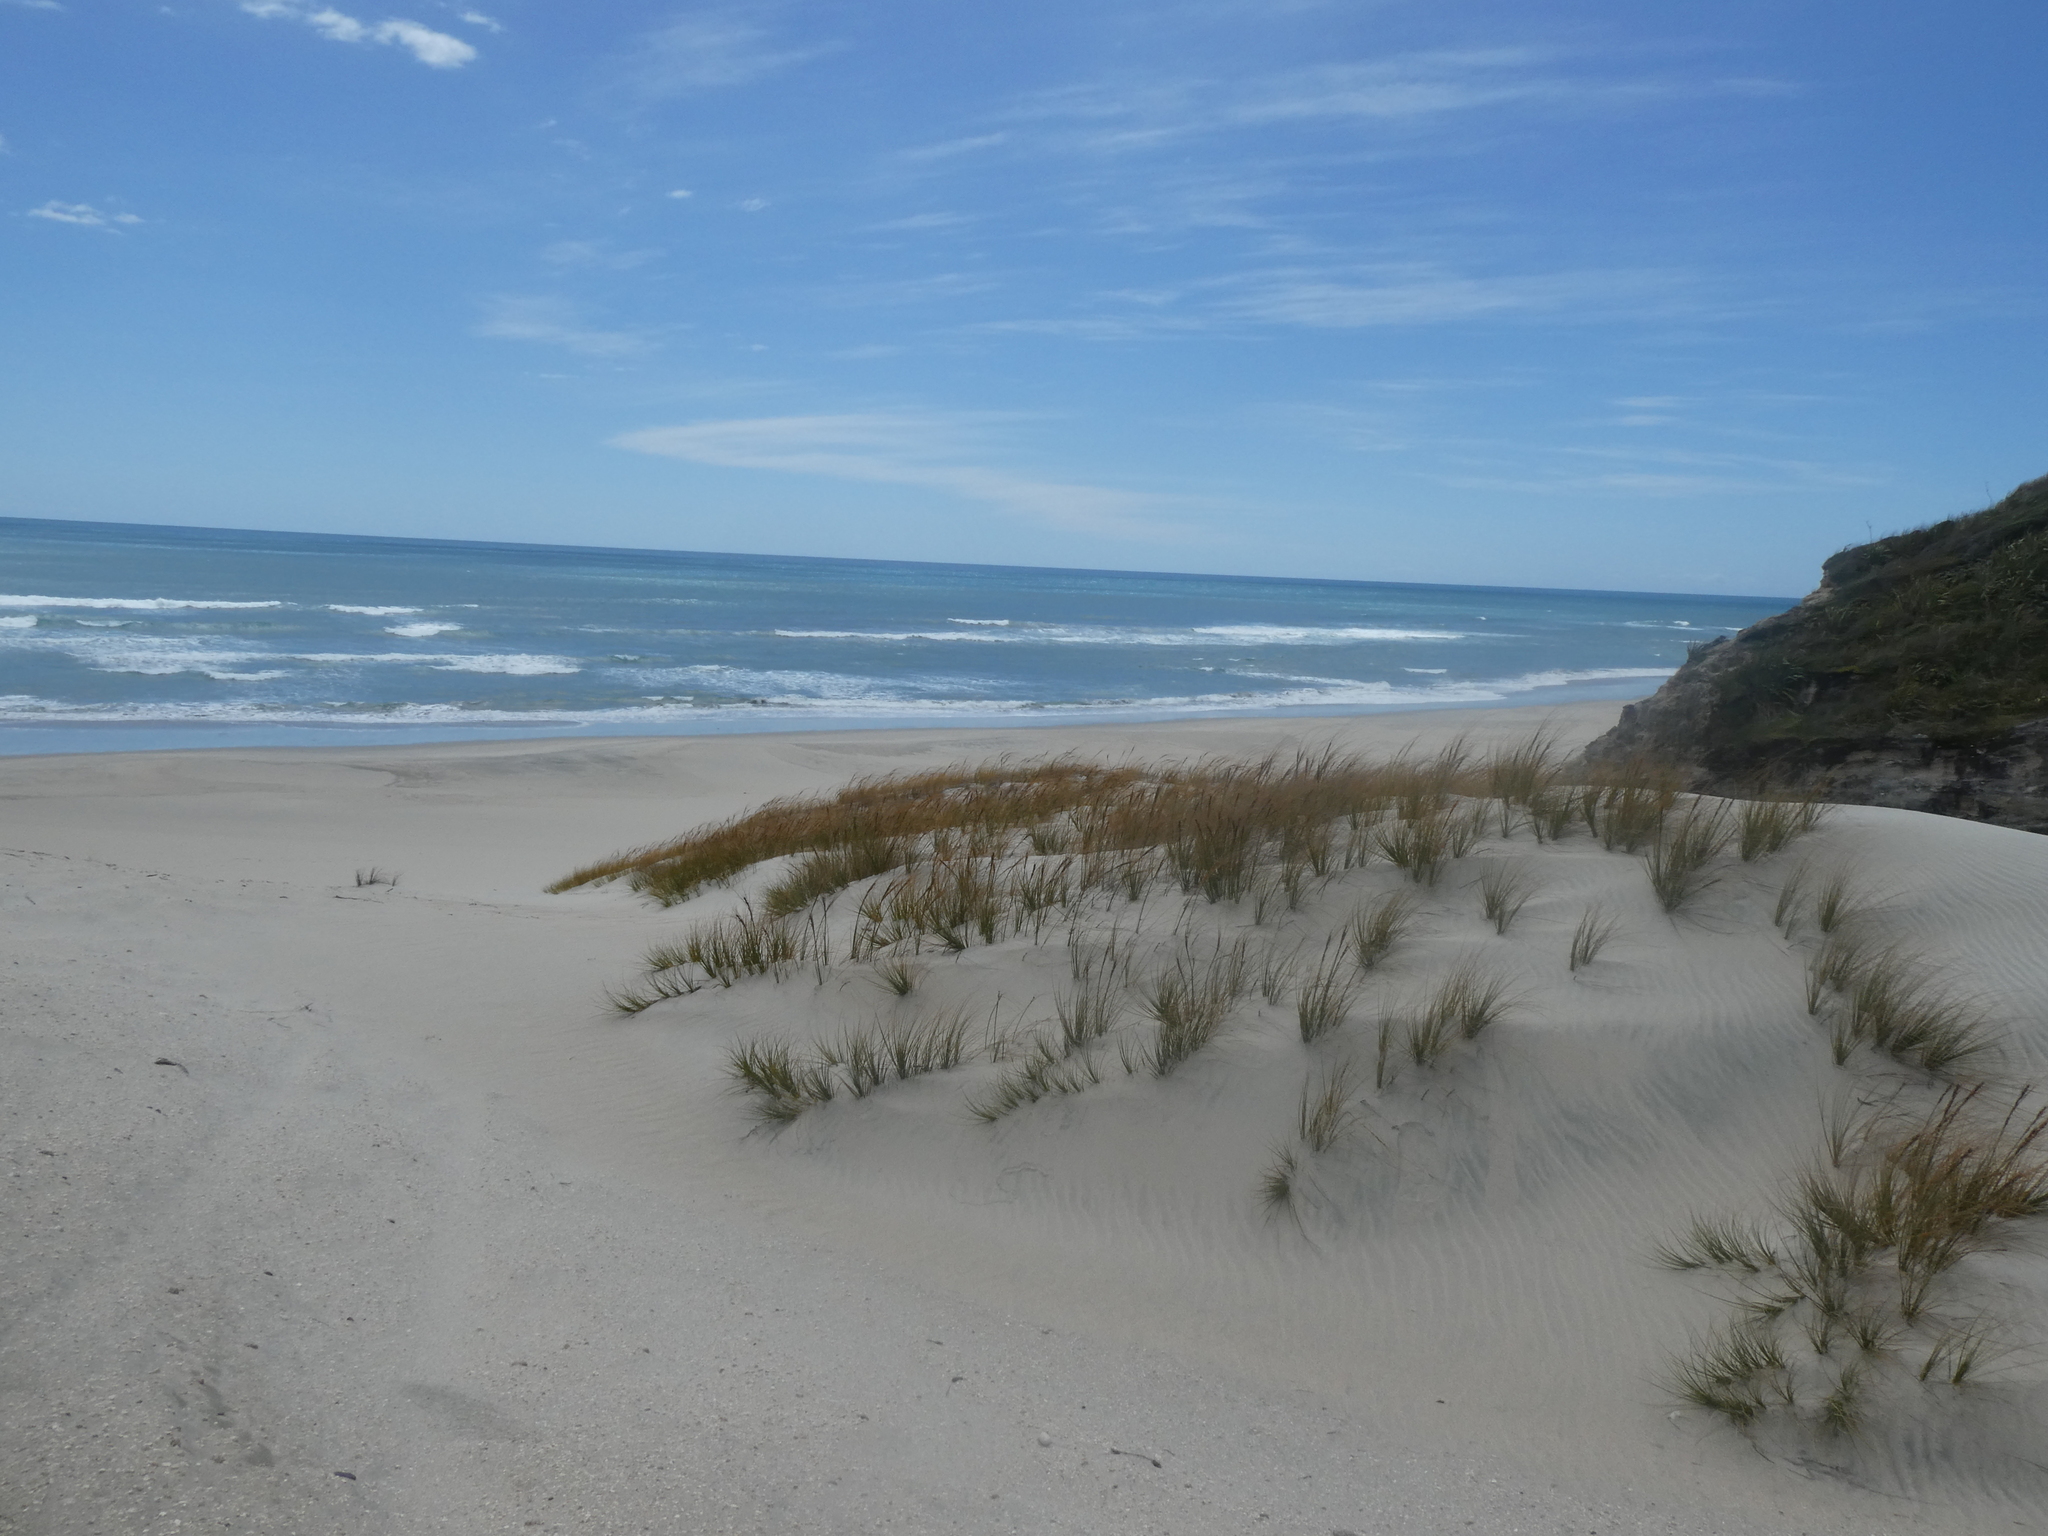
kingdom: Plantae
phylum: Tracheophyta
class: Liliopsida
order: Poales
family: Cyperaceae
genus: Ficinia
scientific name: Ficinia spiralis
